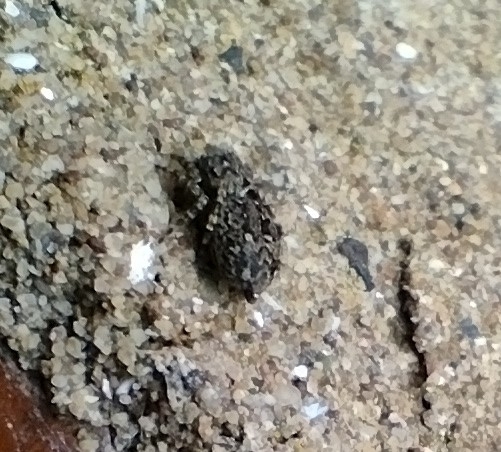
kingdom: Animalia
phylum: Arthropoda
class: Arachnida
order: Araneae
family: Salticidae
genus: Attulus
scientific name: Attulus pubescens
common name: Jumping spider
